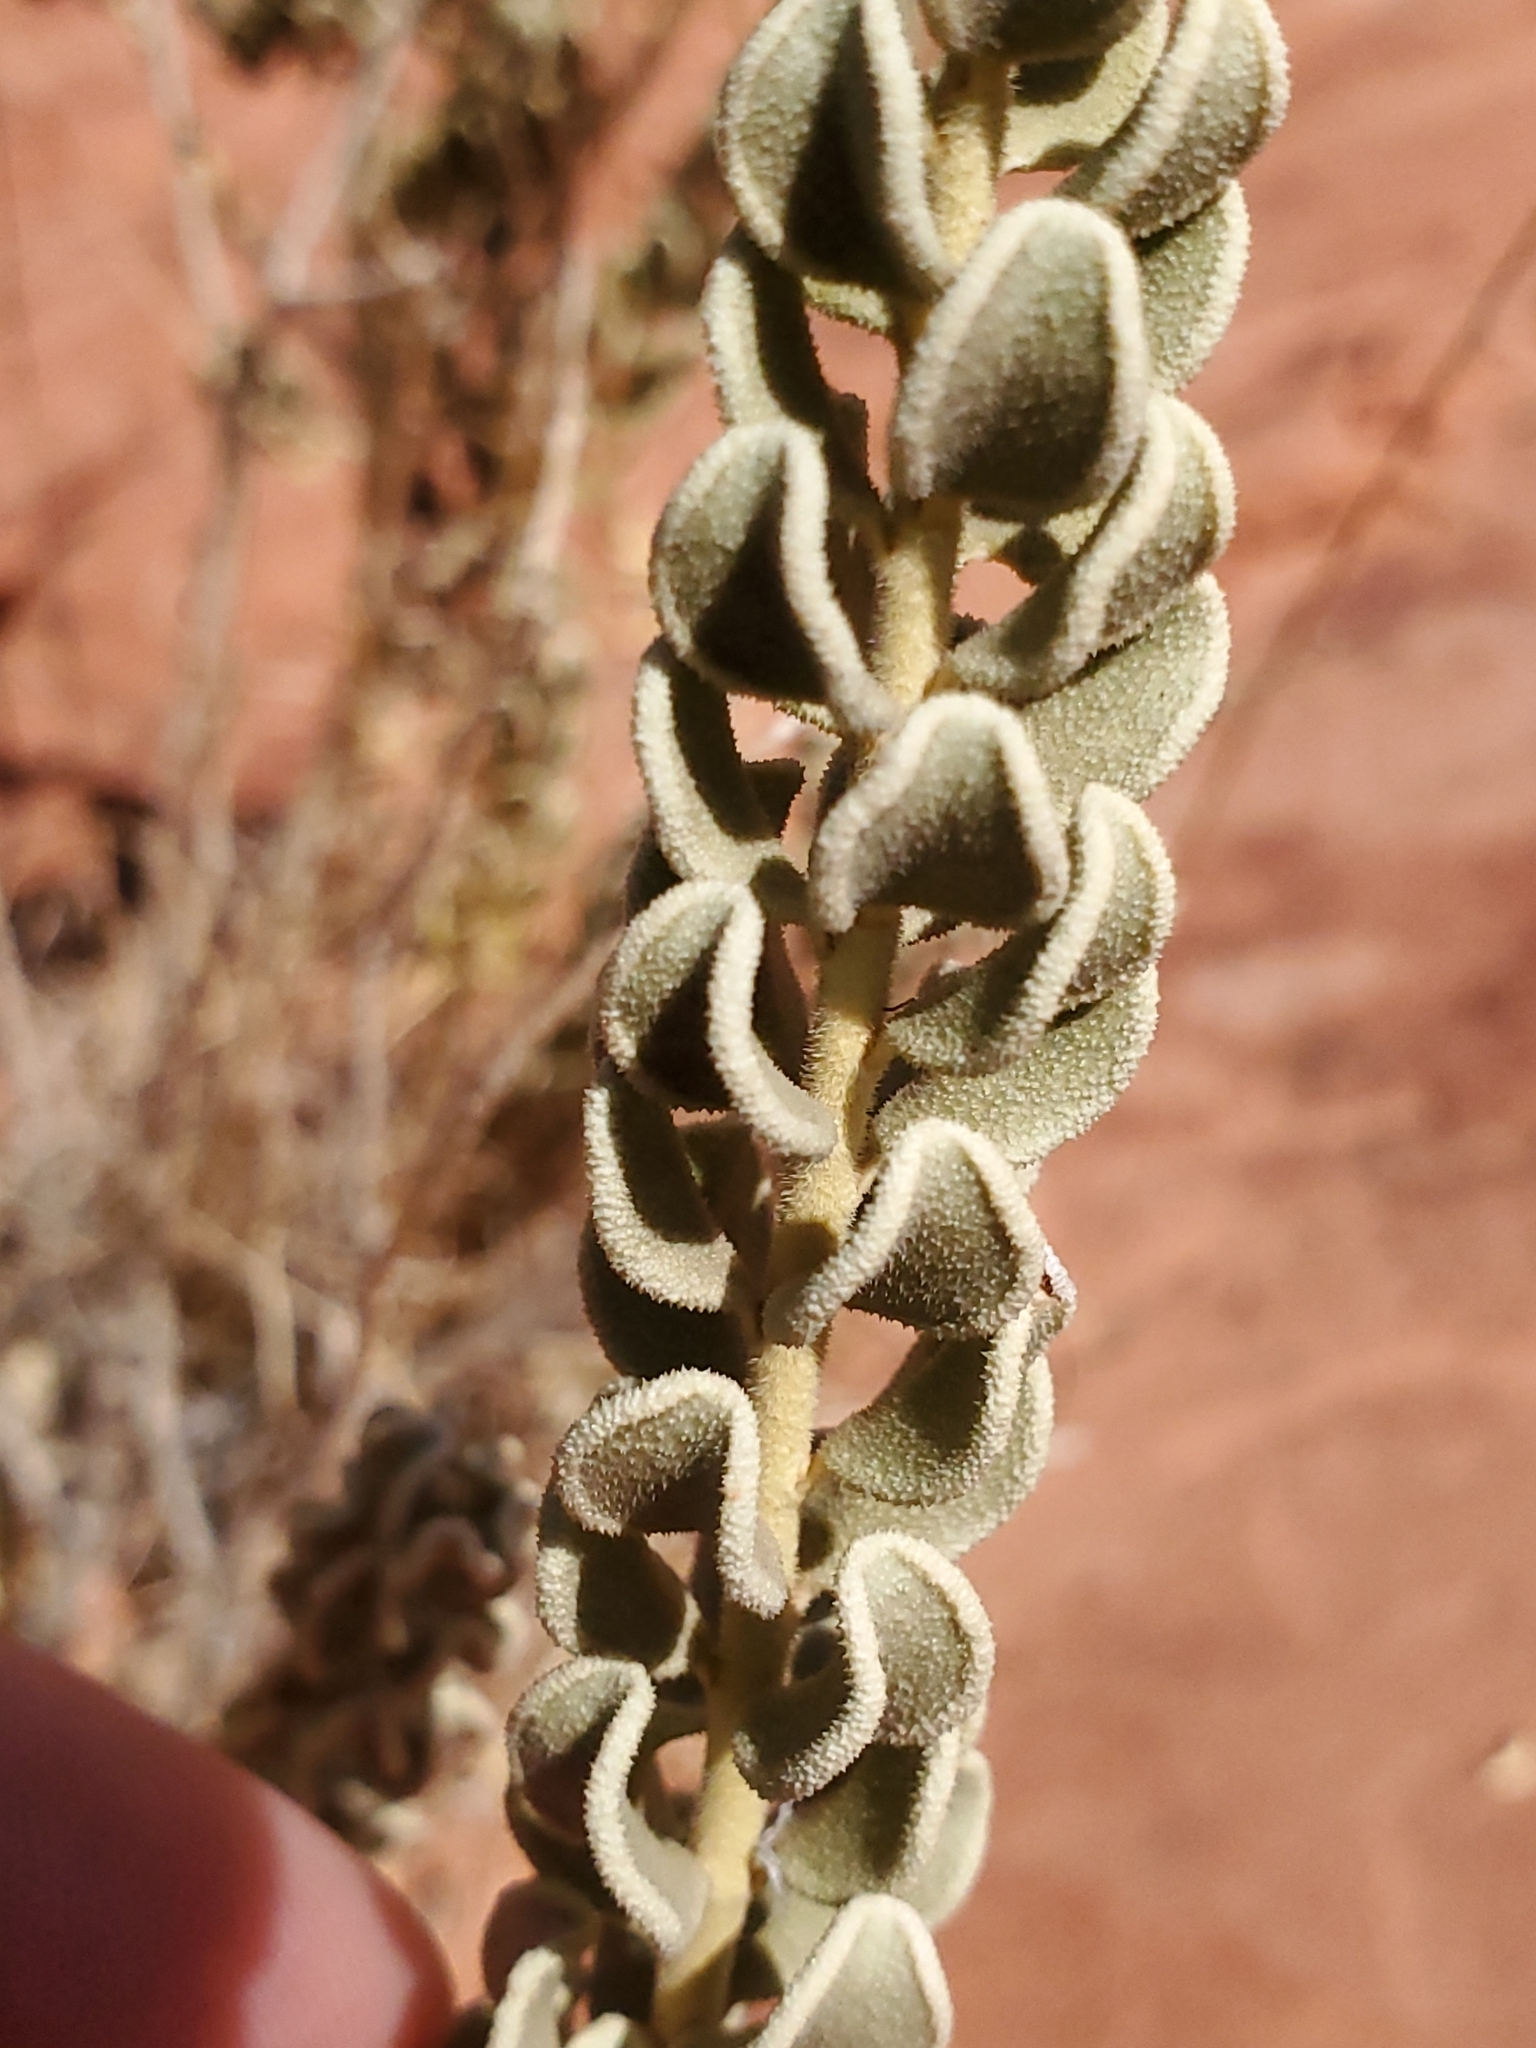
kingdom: Plantae
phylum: Tracheophyta
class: Magnoliopsida
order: Celastrales
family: Celastraceae
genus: Mortonia
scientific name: Mortonia utahensis
